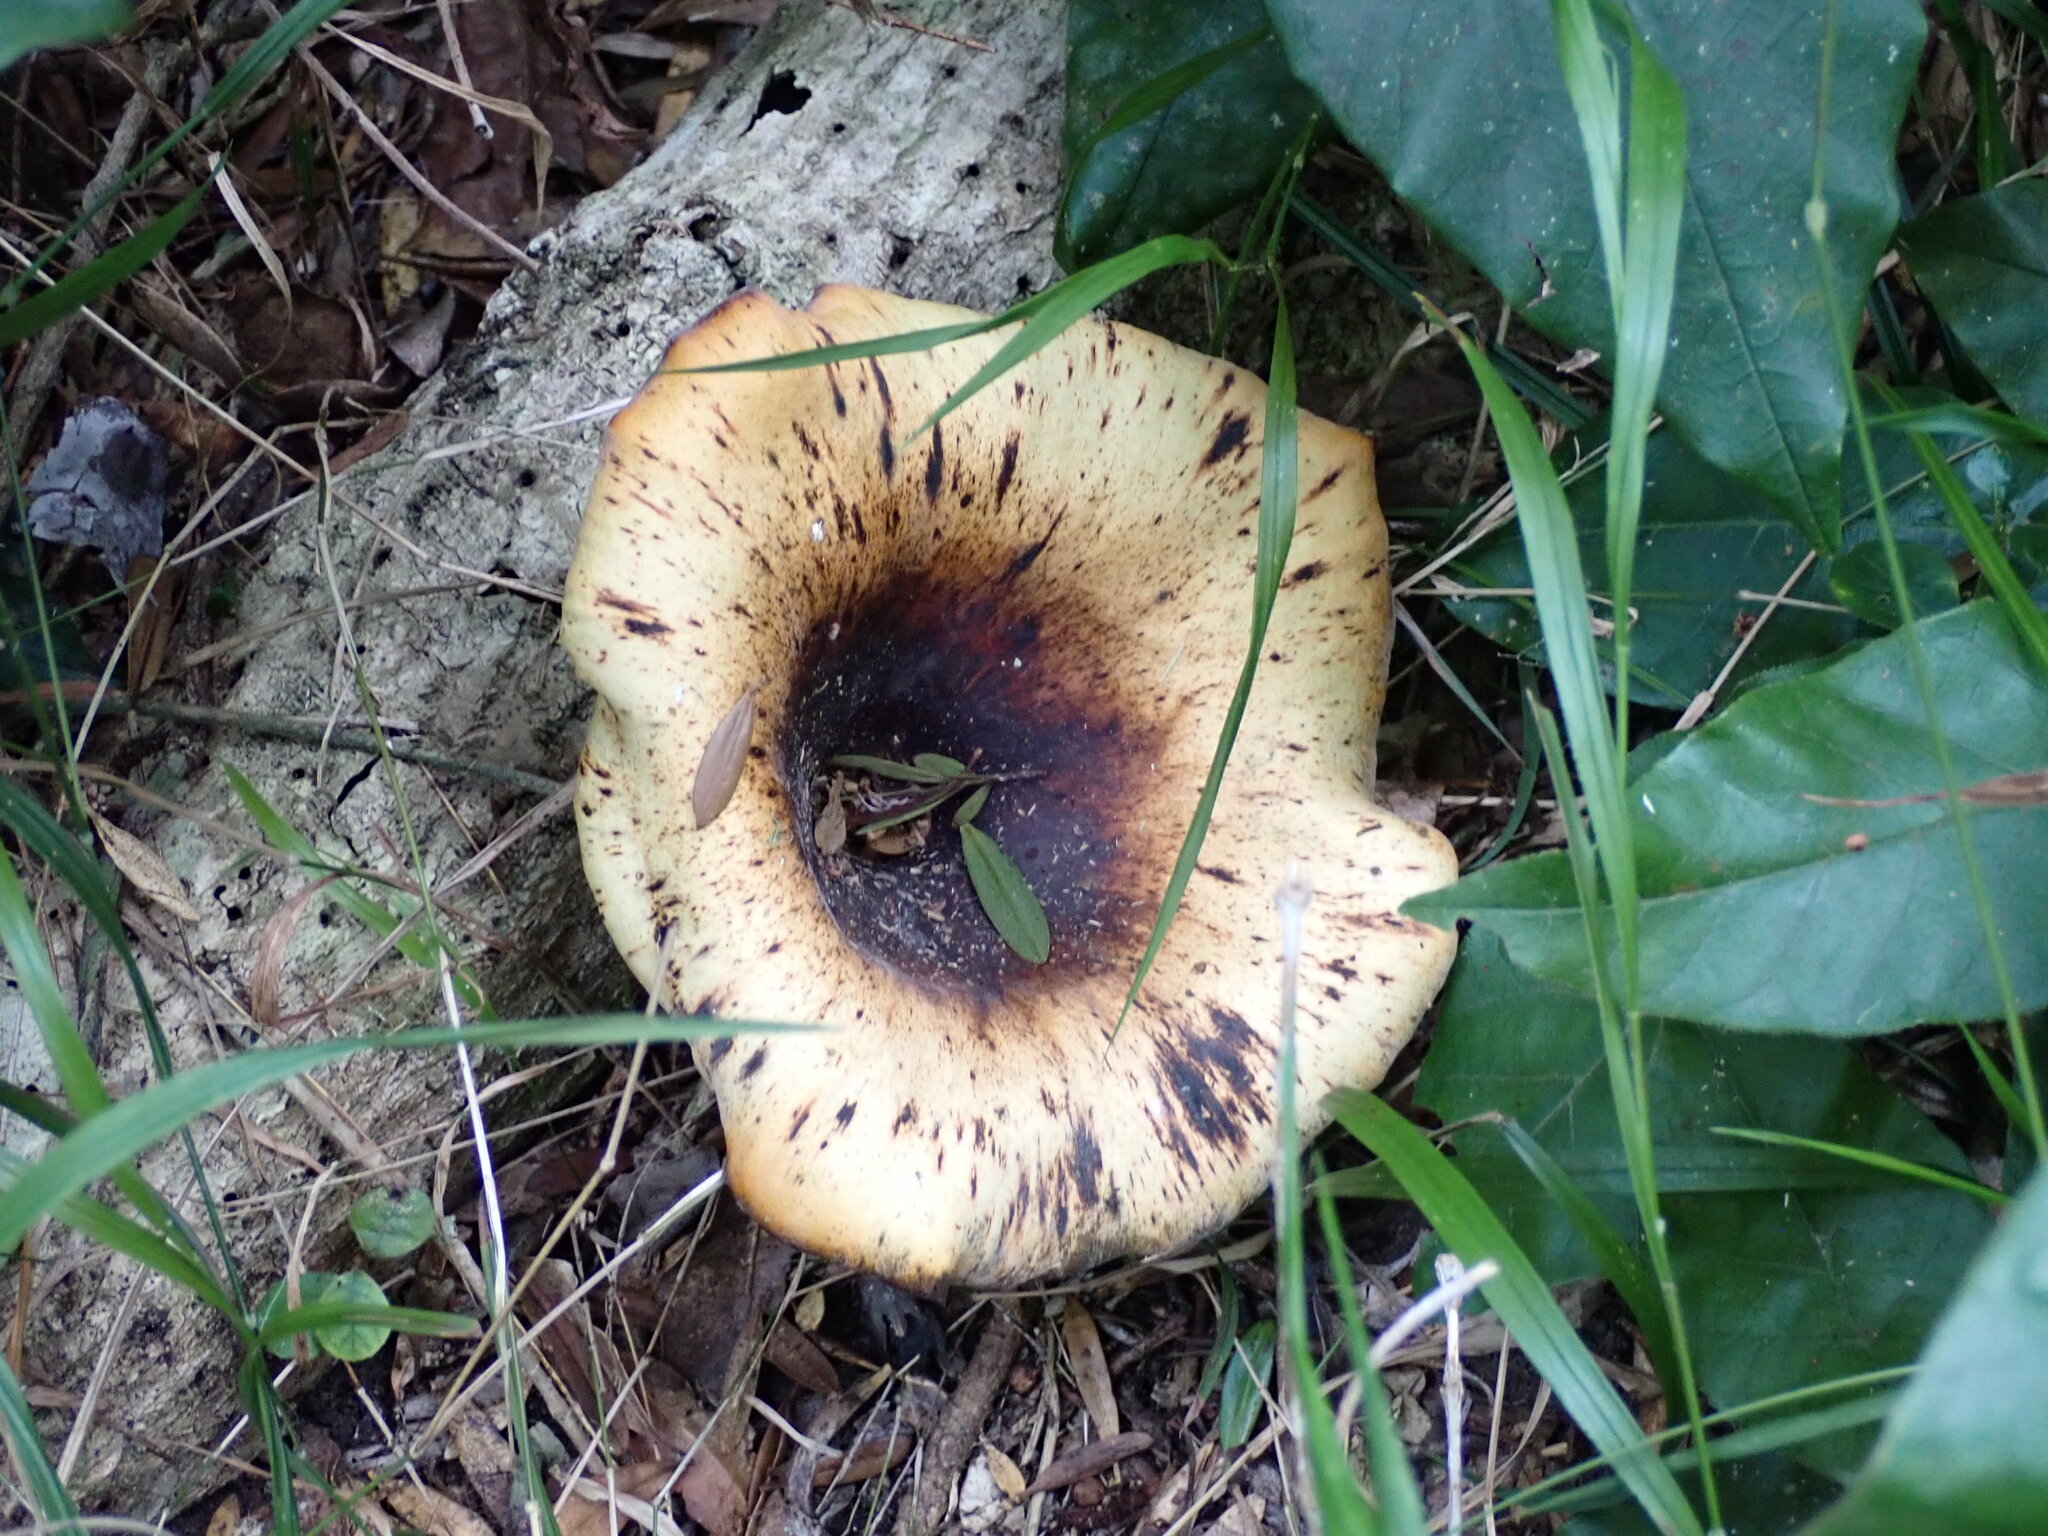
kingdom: Fungi
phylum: Basidiomycota
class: Agaricomycetes
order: Polyporales
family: Polyporaceae
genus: Lentinus
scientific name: Lentinus sajor-caju
